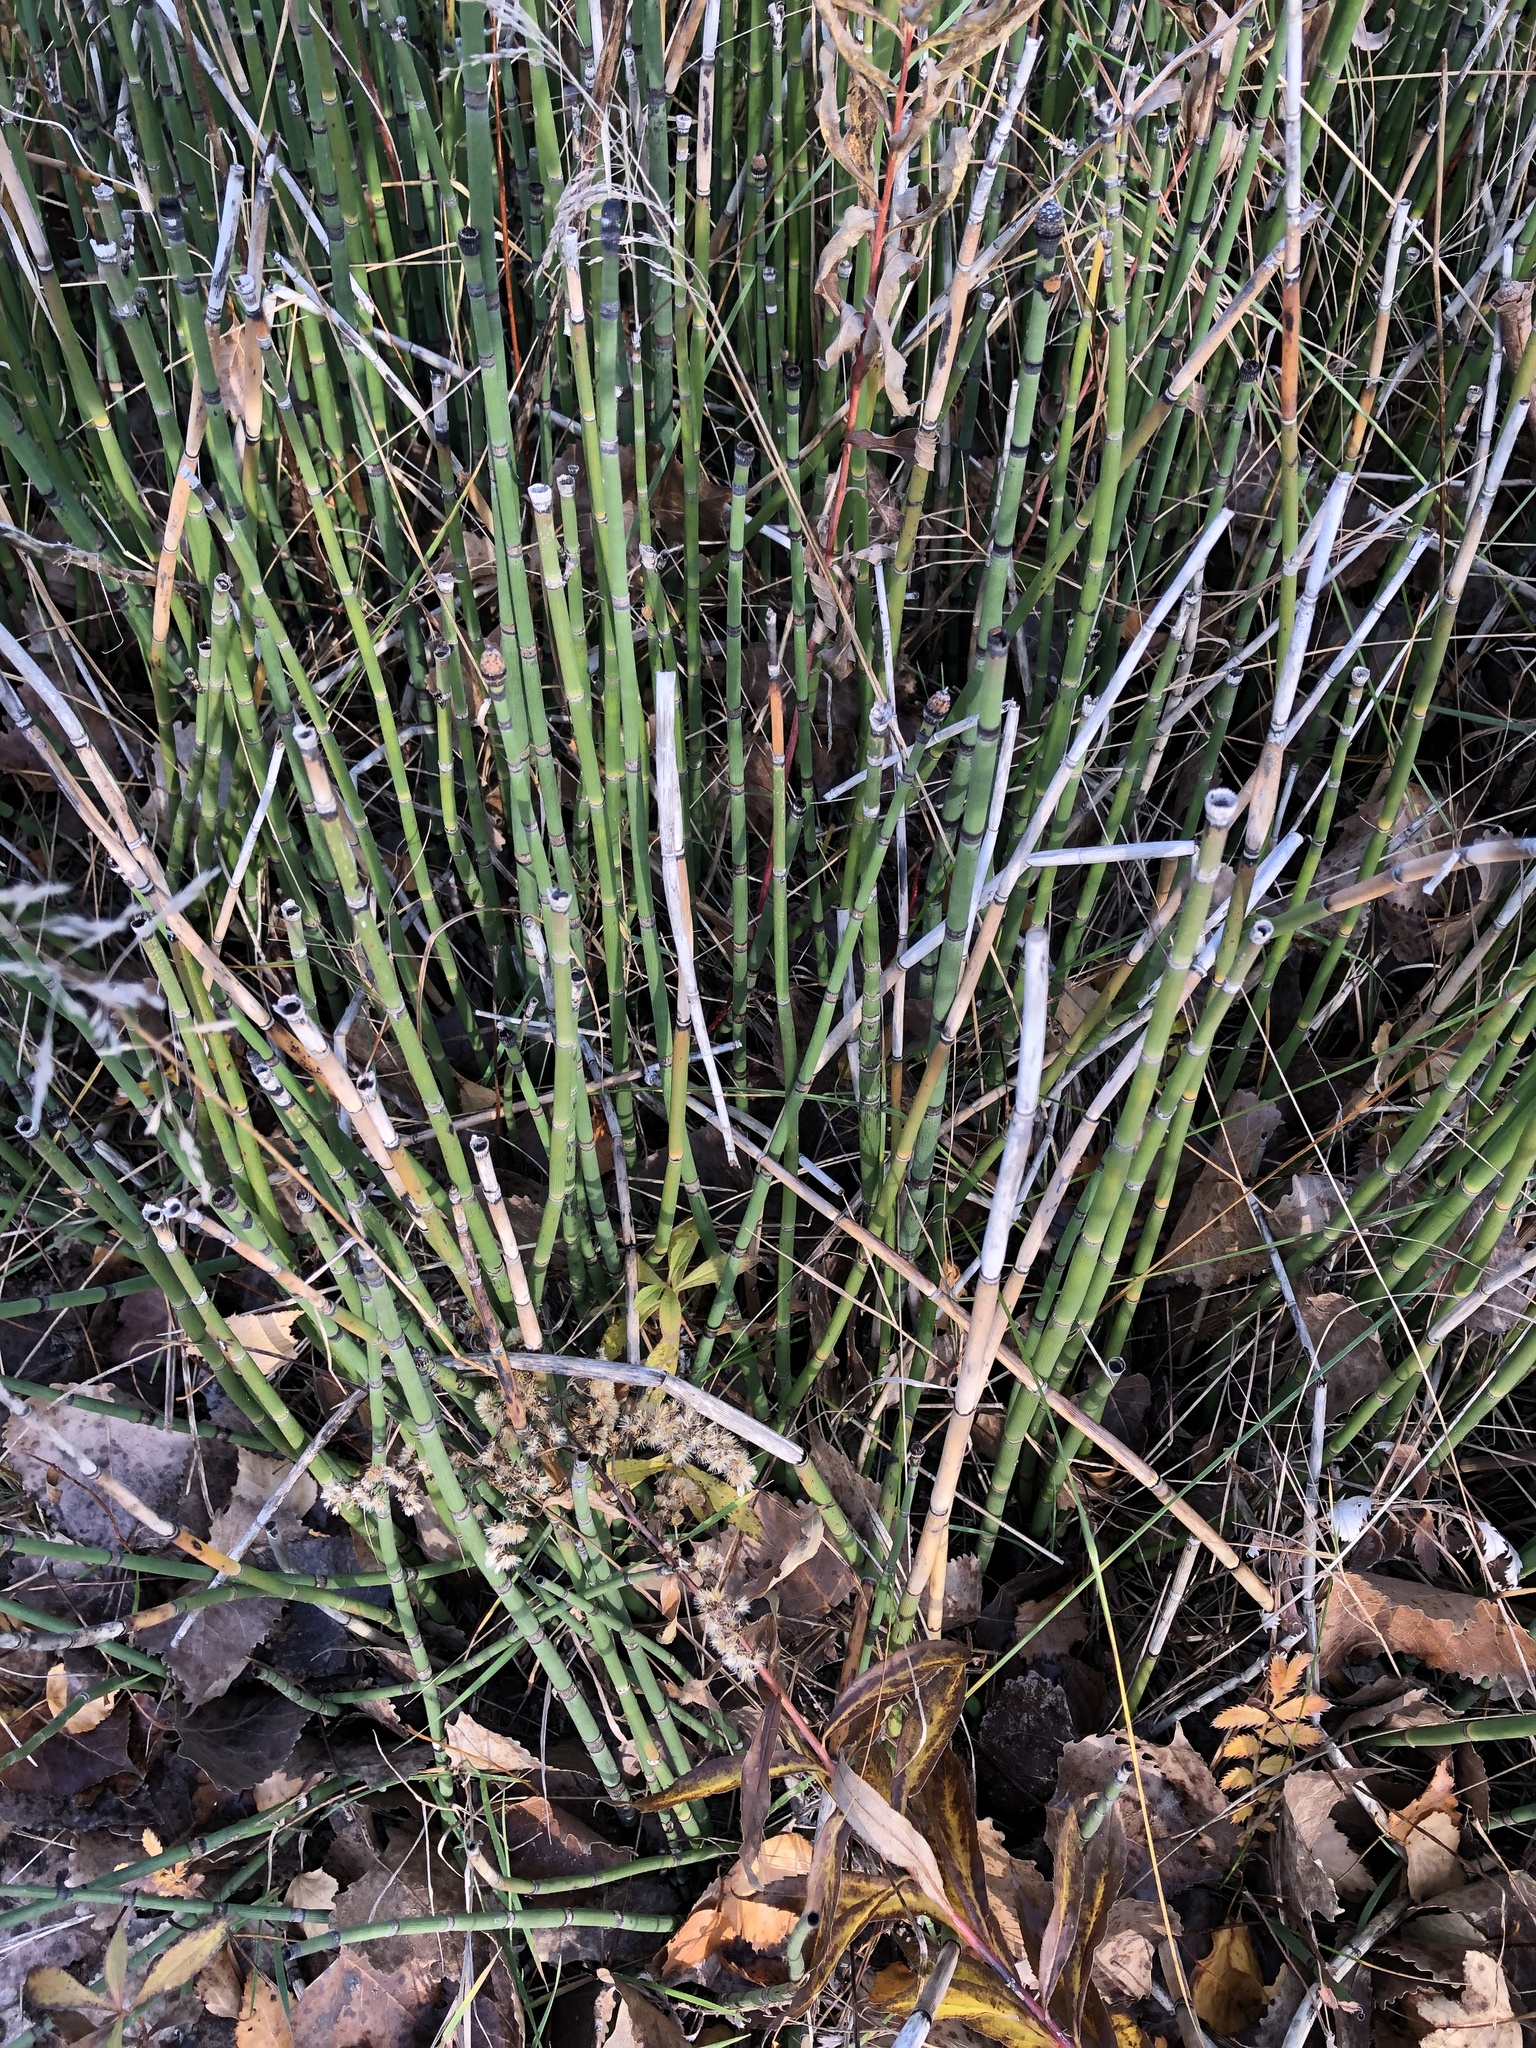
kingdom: Plantae
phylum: Tracheophyta
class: Polypodiopsida
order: Equisetales
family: Equisetaceae
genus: Equisetum
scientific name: Equisetum hyemale
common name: Rough horsetail
